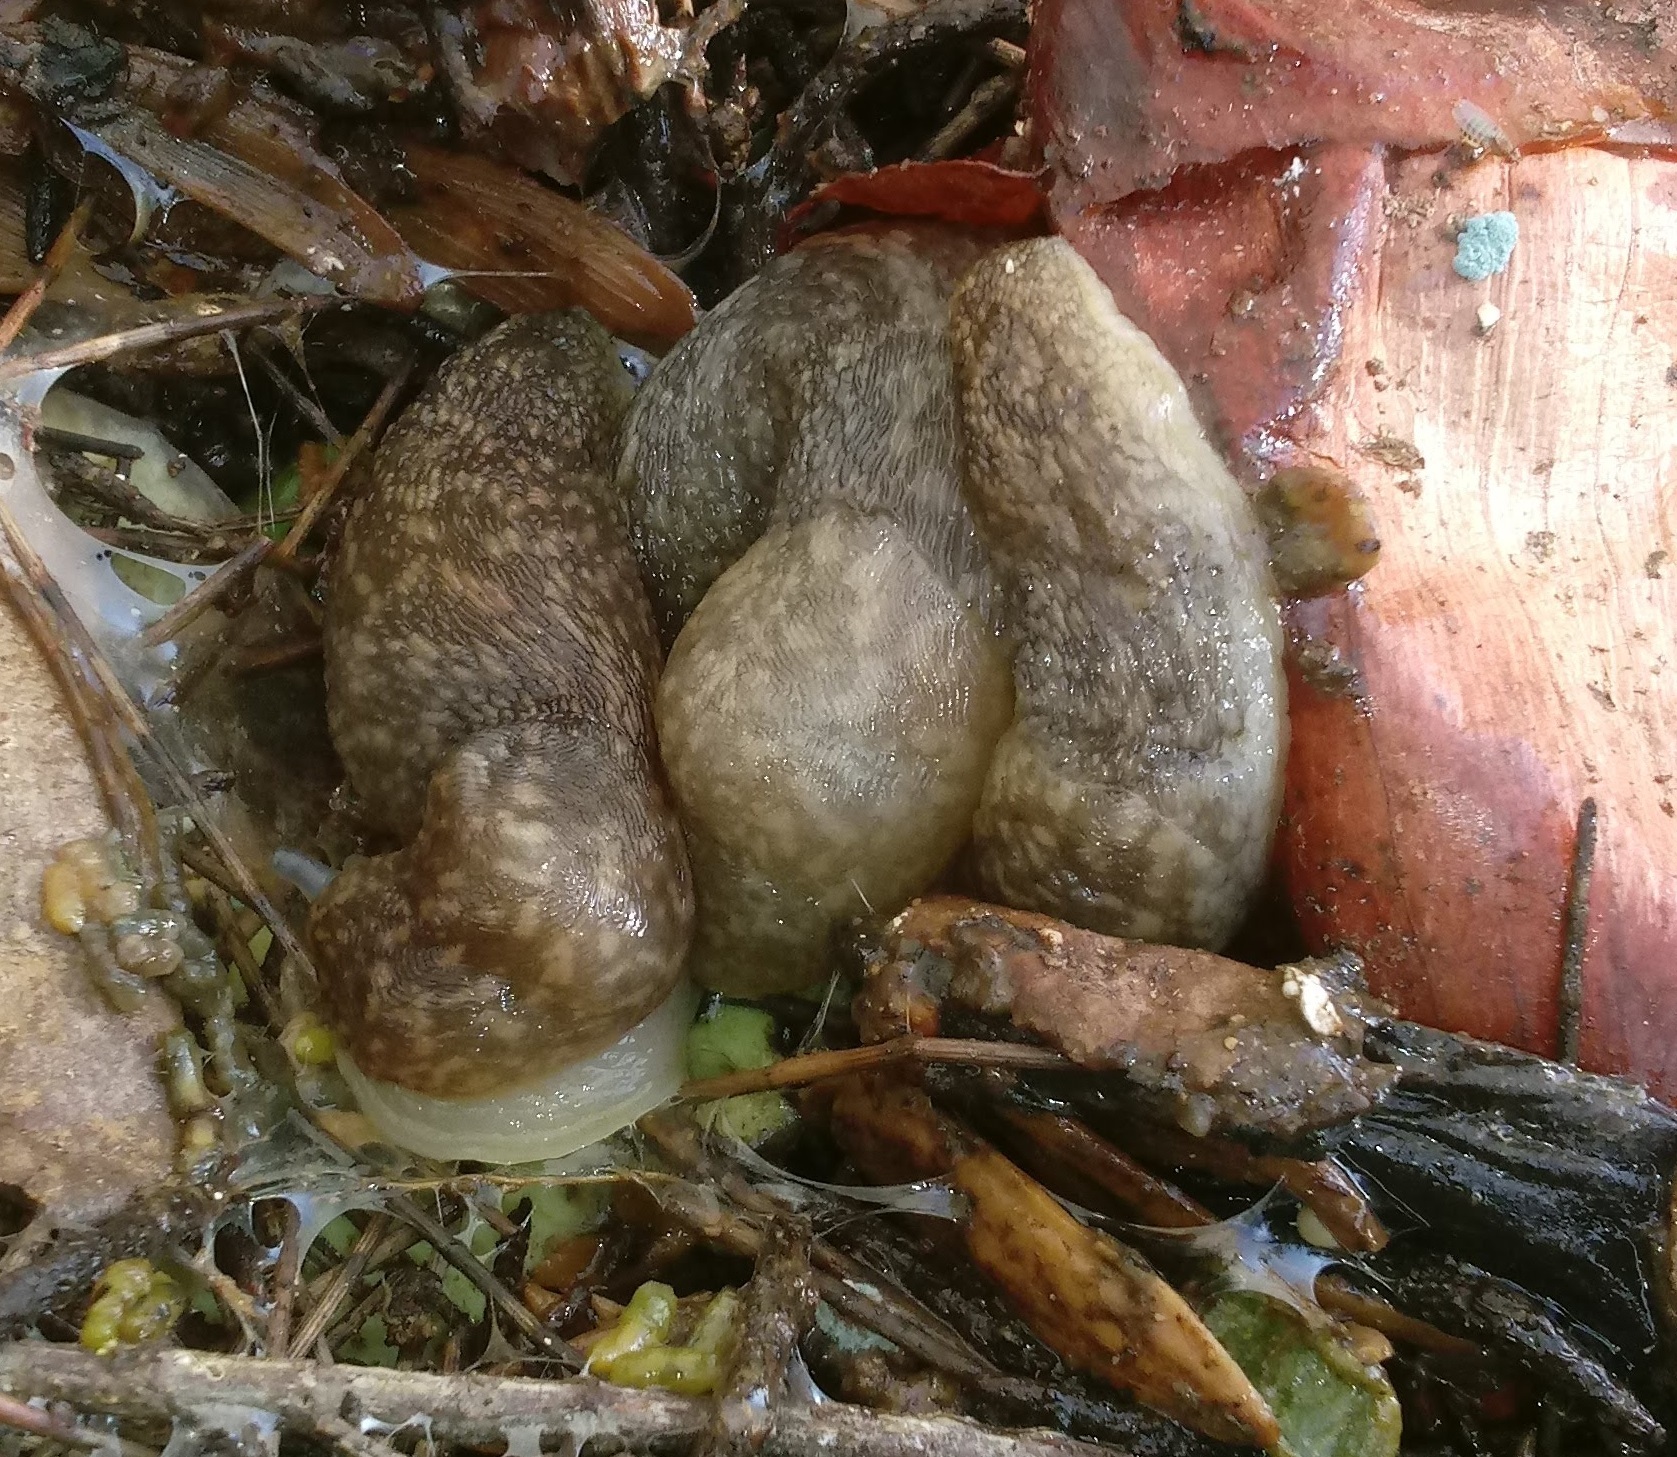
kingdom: Animalia
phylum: Mollusca
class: Gastropoda
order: Stylommatophora
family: Limacidae
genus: Limacus
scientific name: Limacus flavus
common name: Yellow gardenslug
